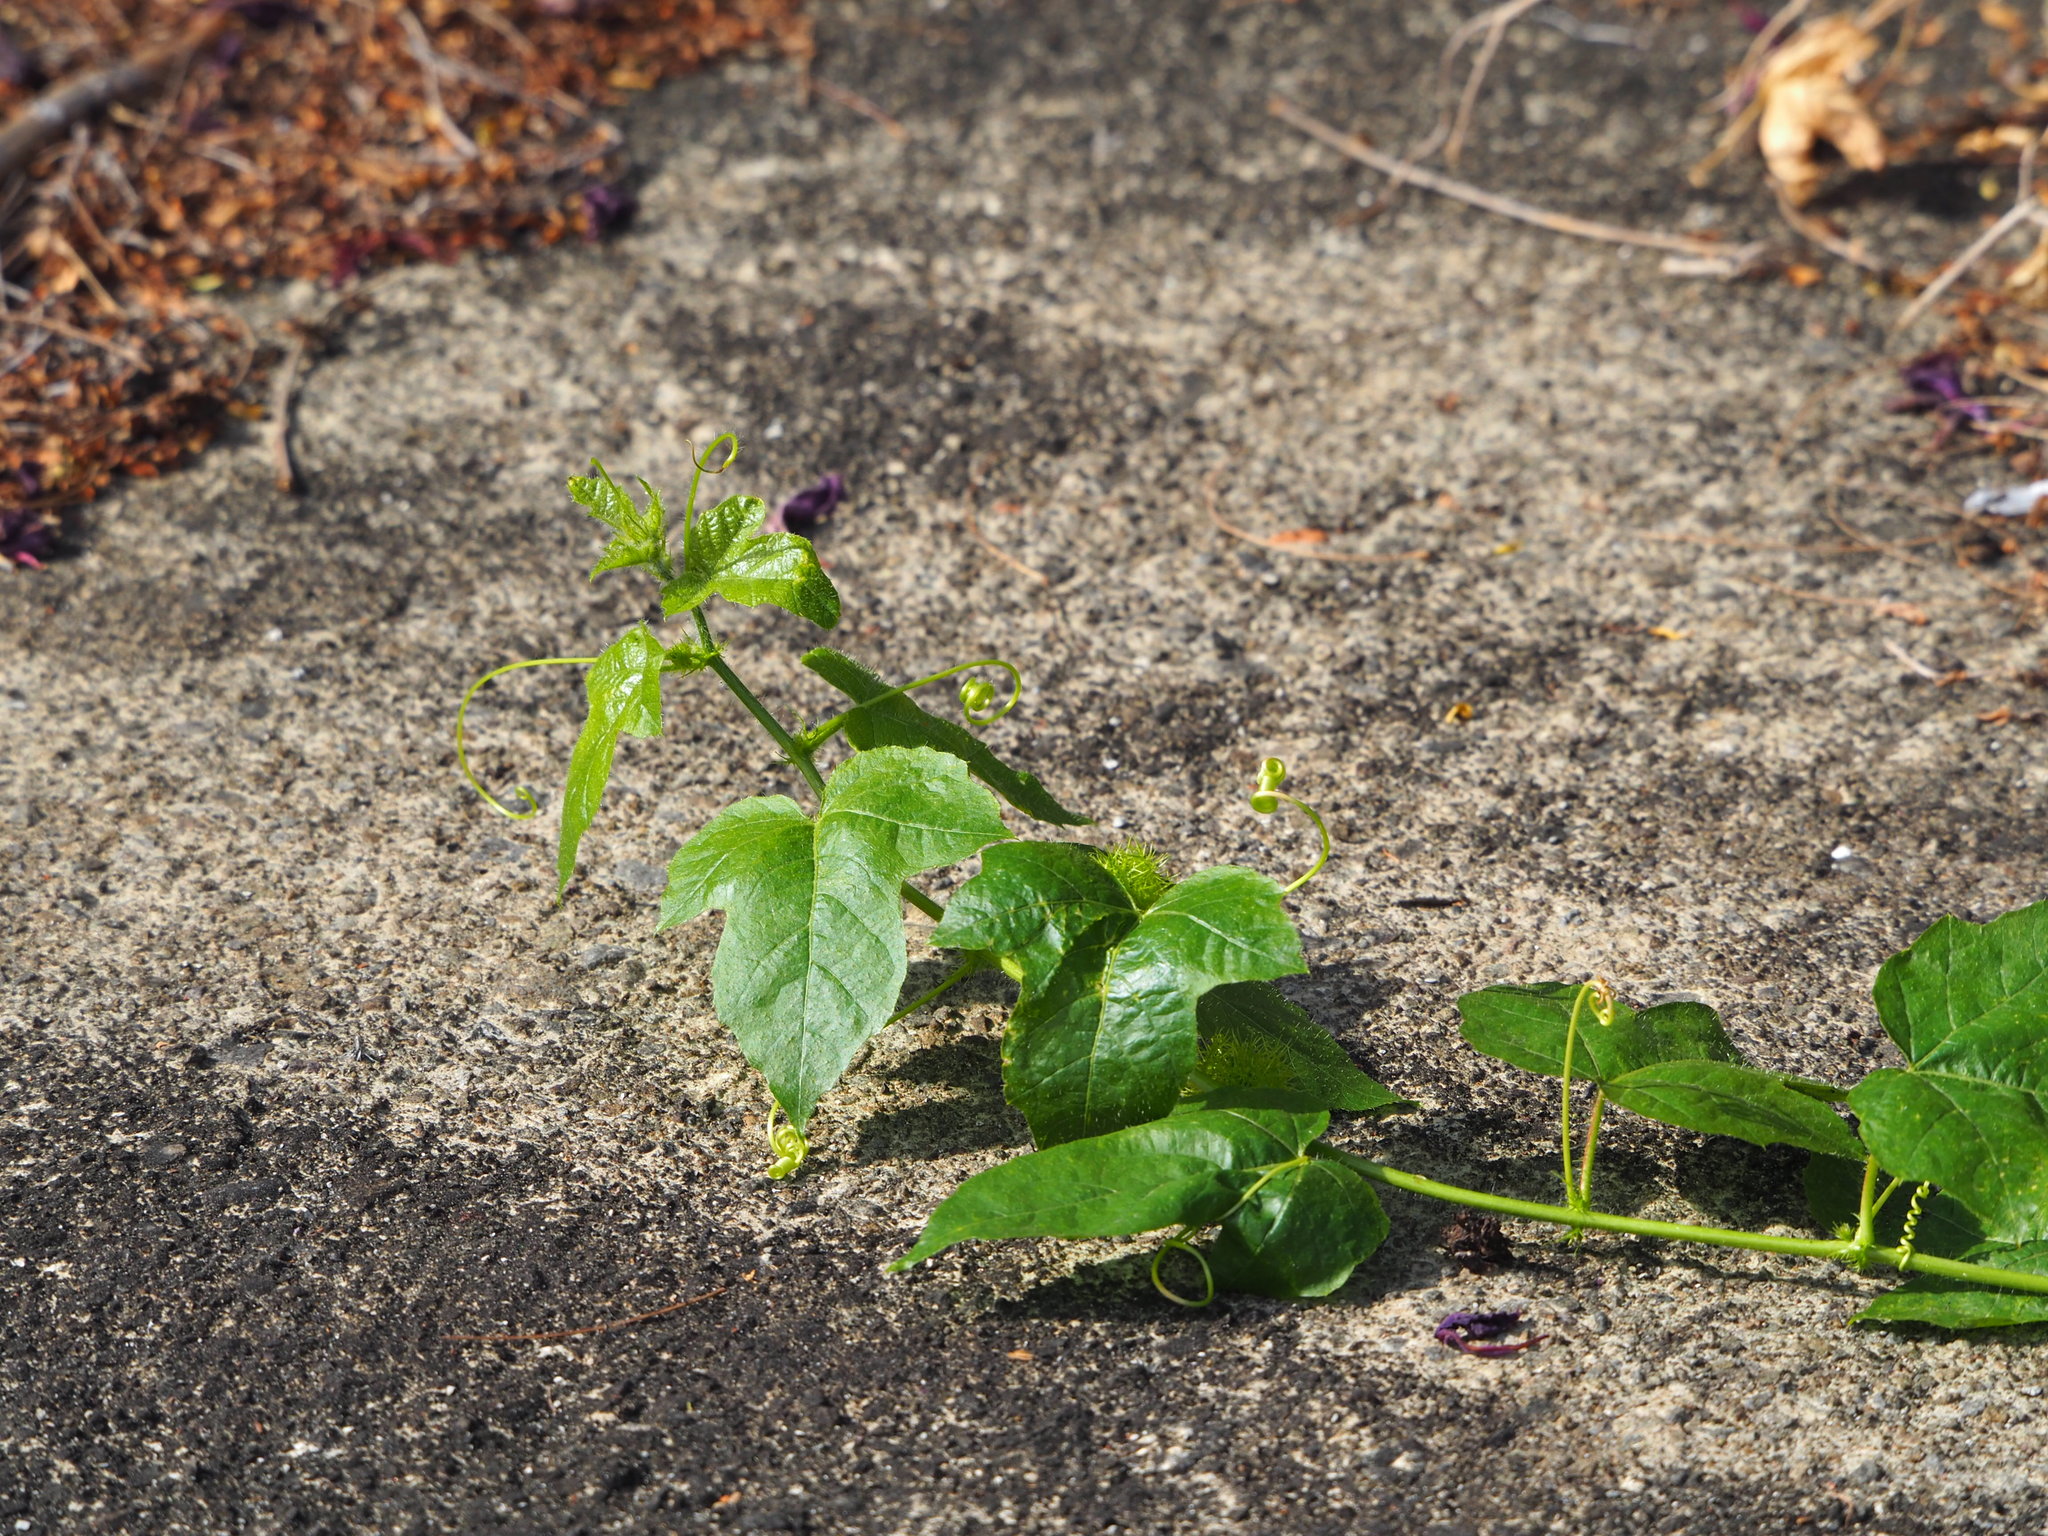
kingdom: Plantae
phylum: Tracheophyta
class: Magnoliopsida
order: Malpighiales
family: Passifloraceae
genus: Passiflora
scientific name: Passiflora vesicaria
